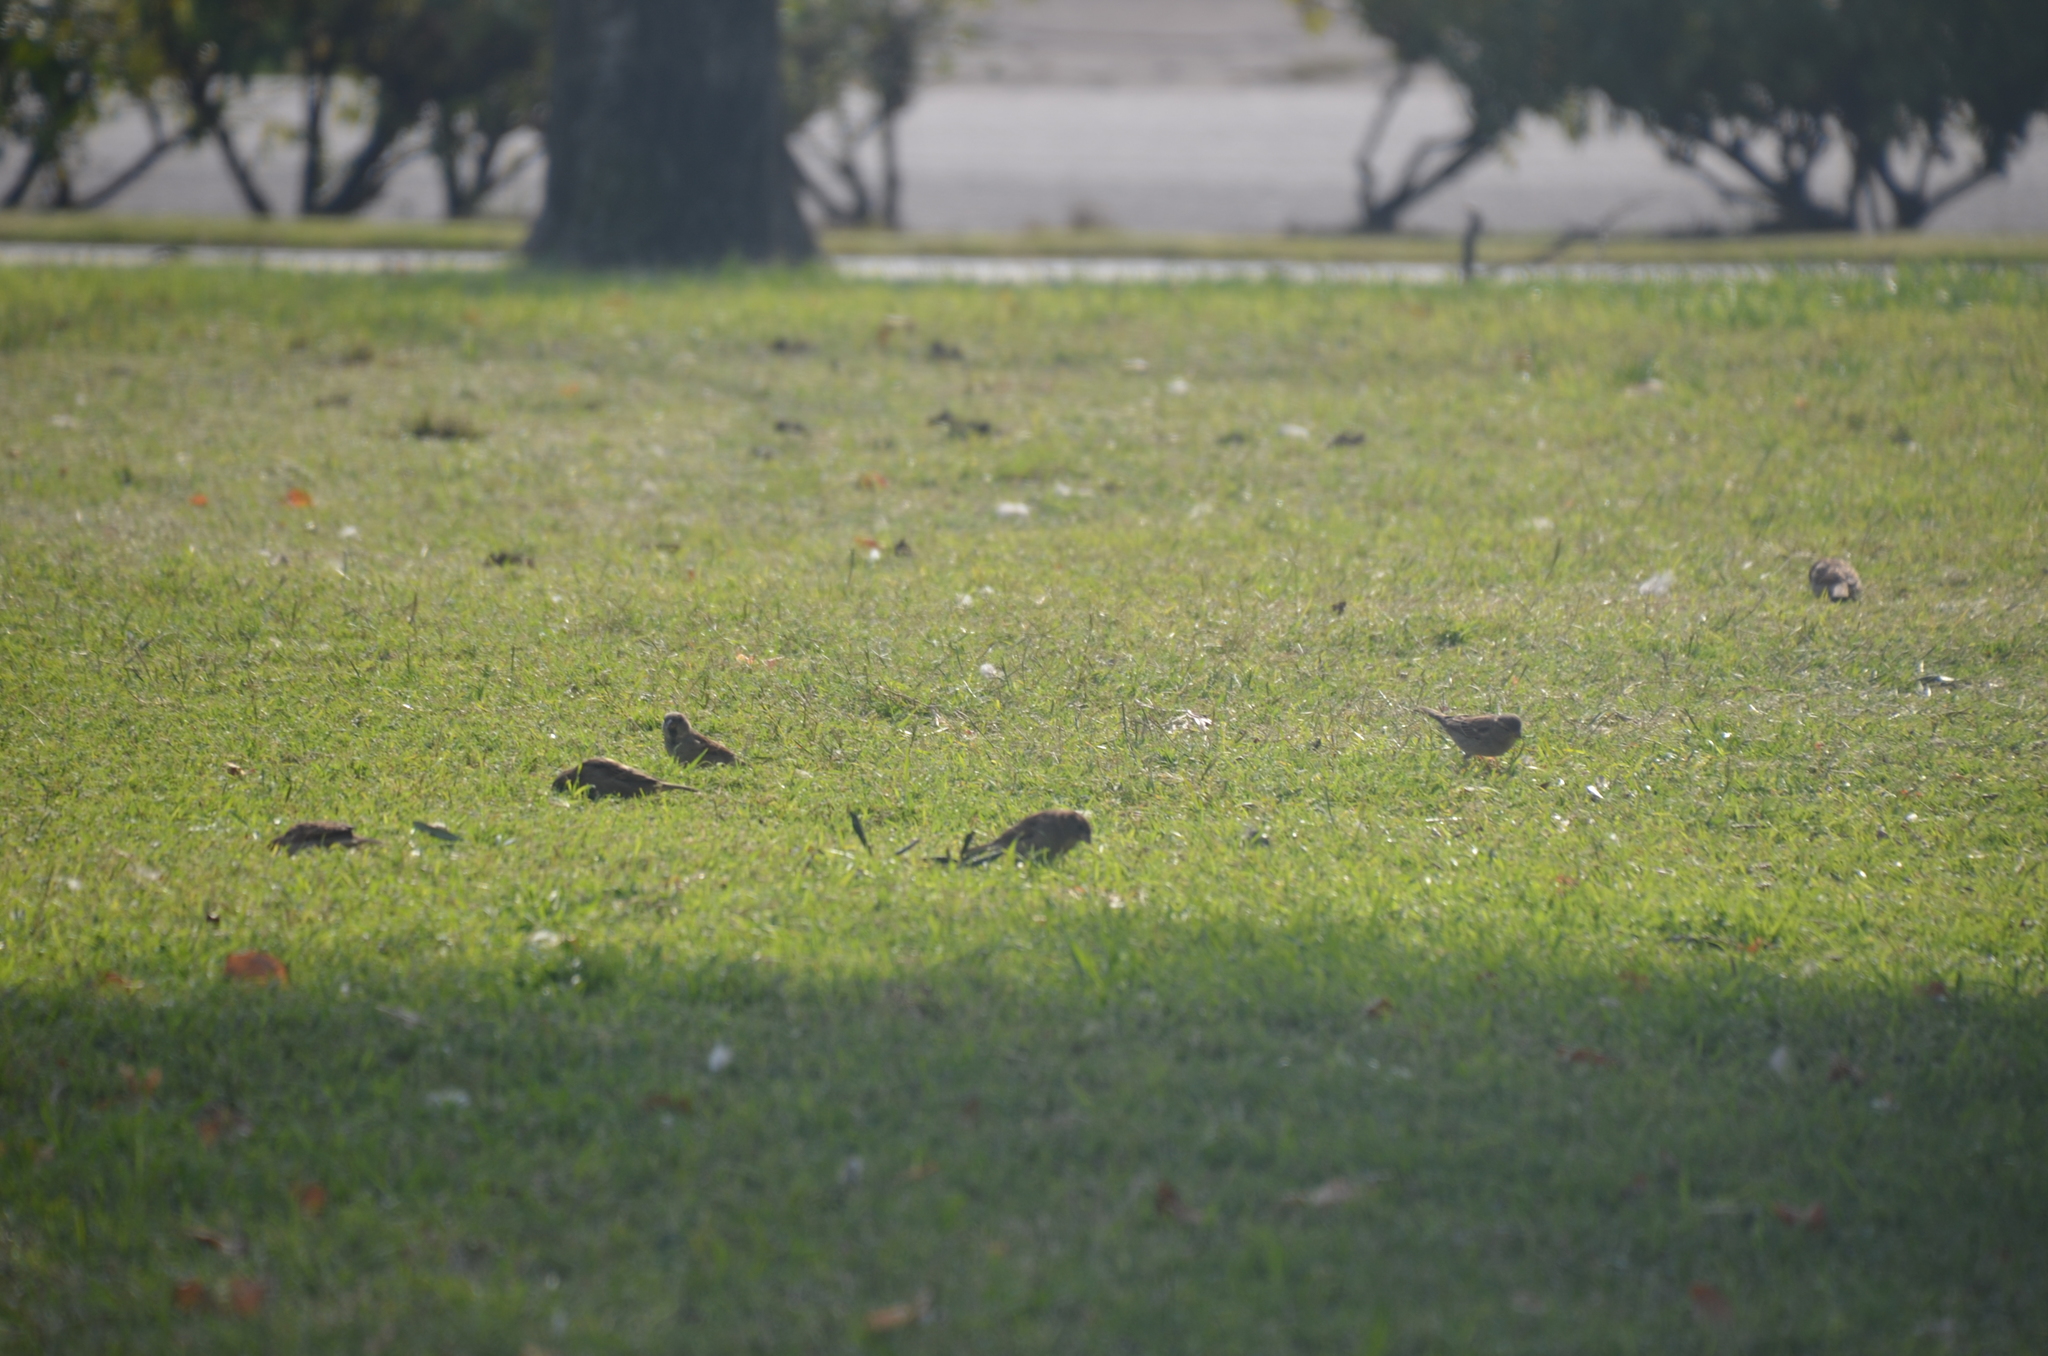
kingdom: Animalia
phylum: Chordata
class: Aves
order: Passeriformes
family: Passeridae
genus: Passer
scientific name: Passer domesticus
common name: House sparrow
